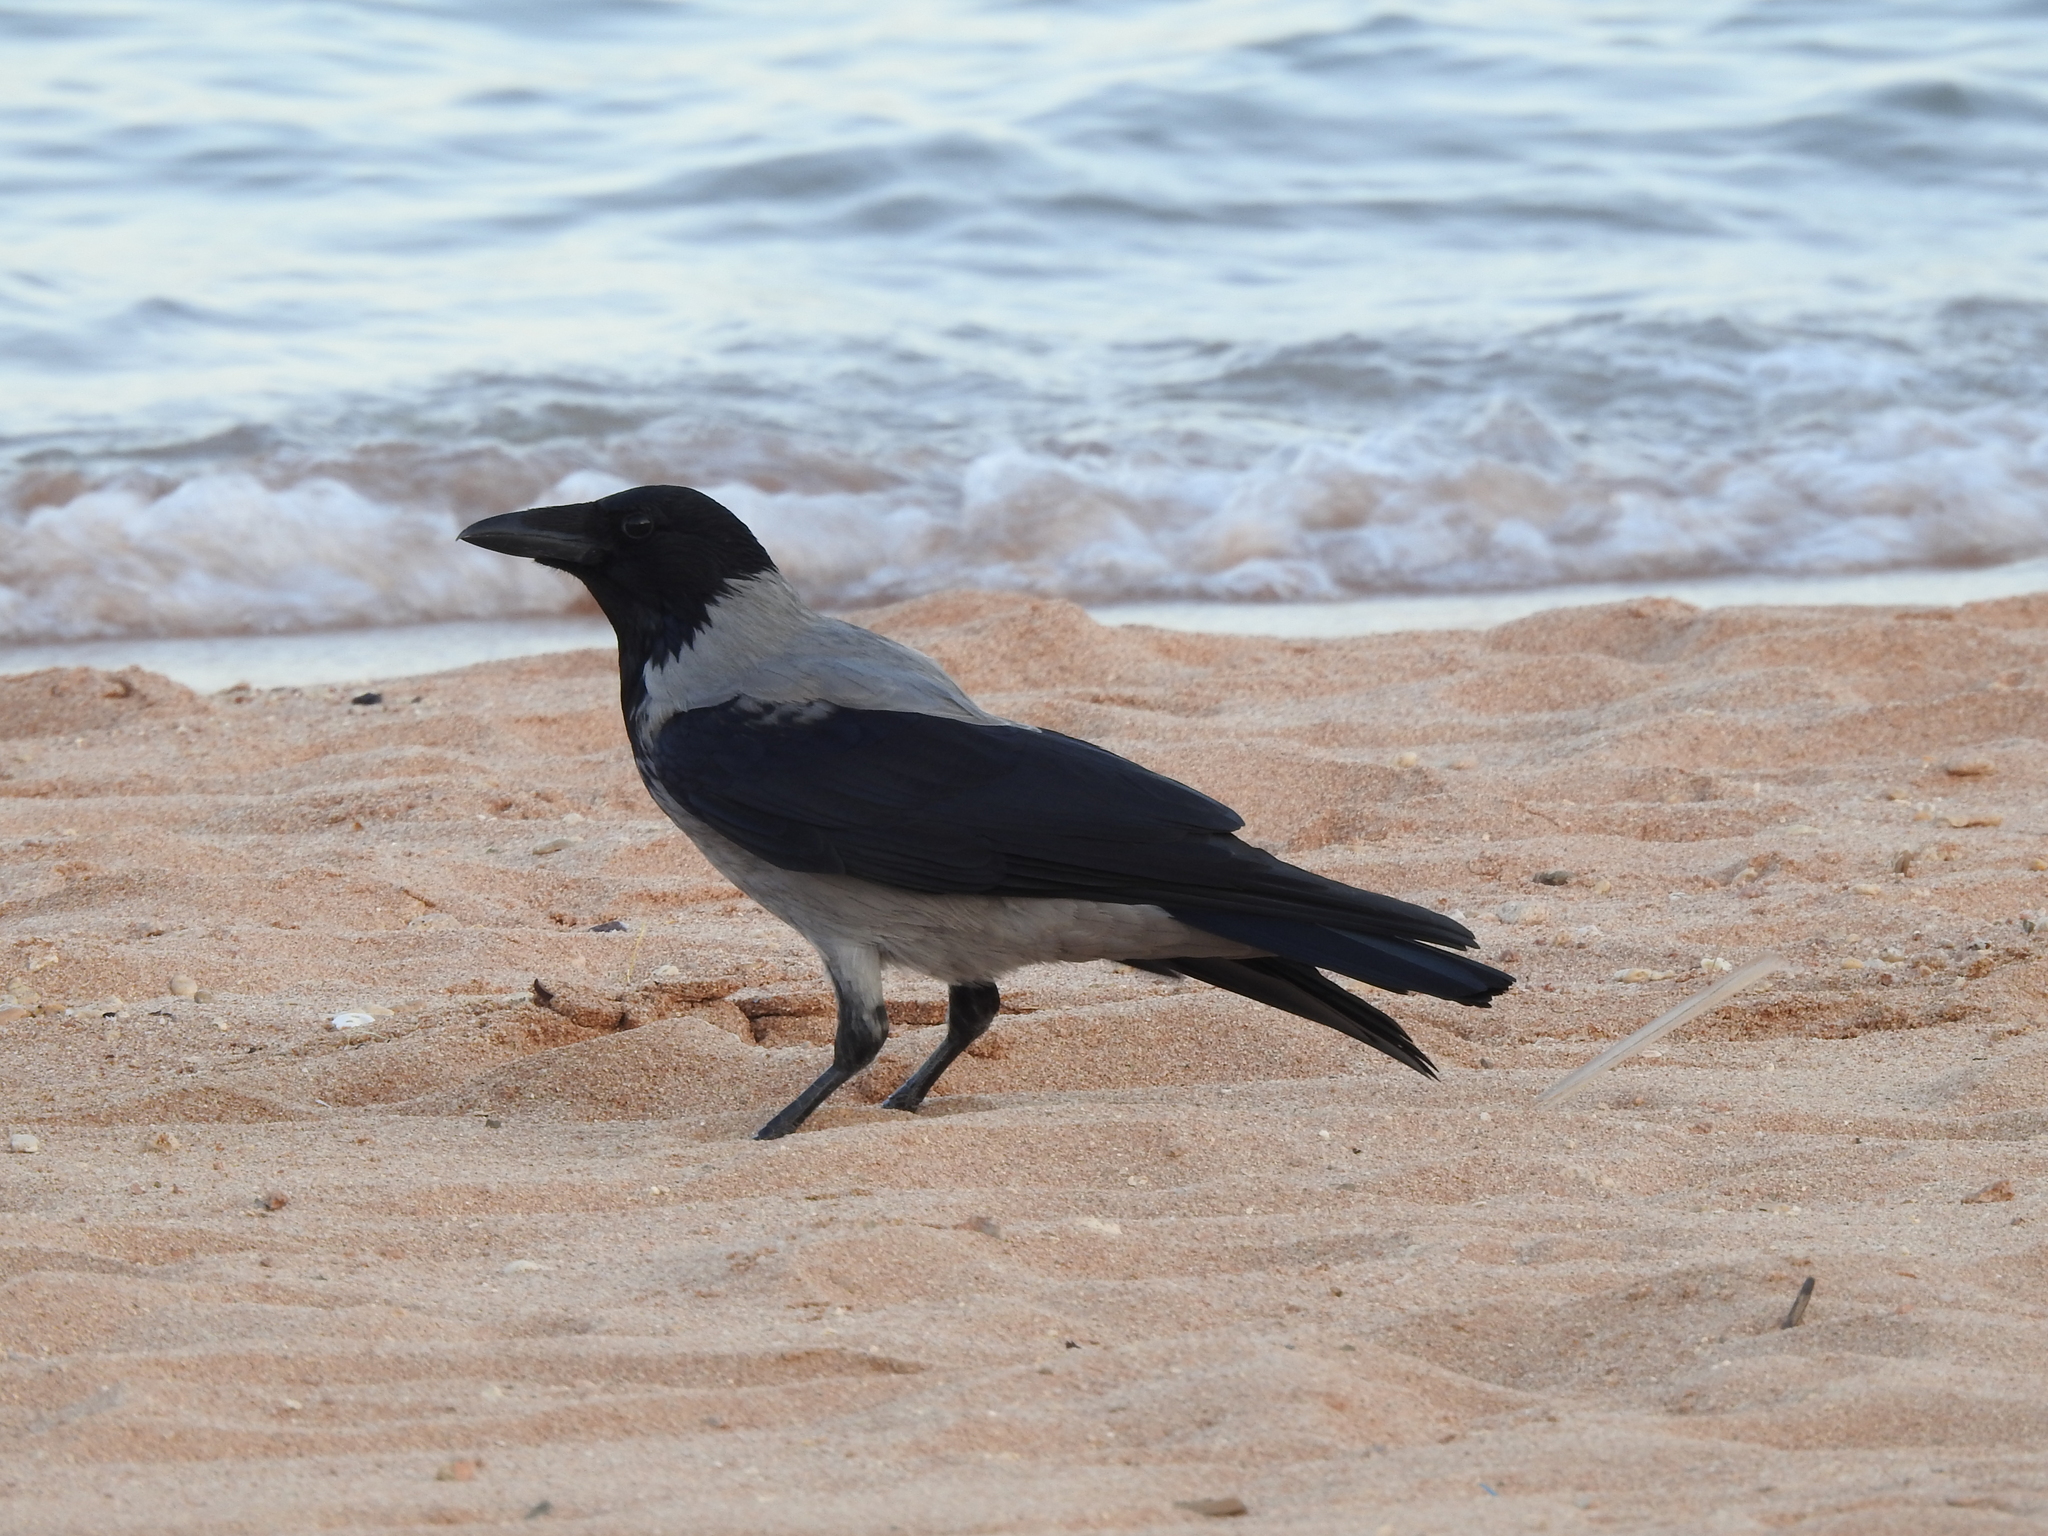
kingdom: Animalia
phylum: Chordata
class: Aves
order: Passeriformes
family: Corvidae
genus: Corvus
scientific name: Corvus cornix
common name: Hooded crow
